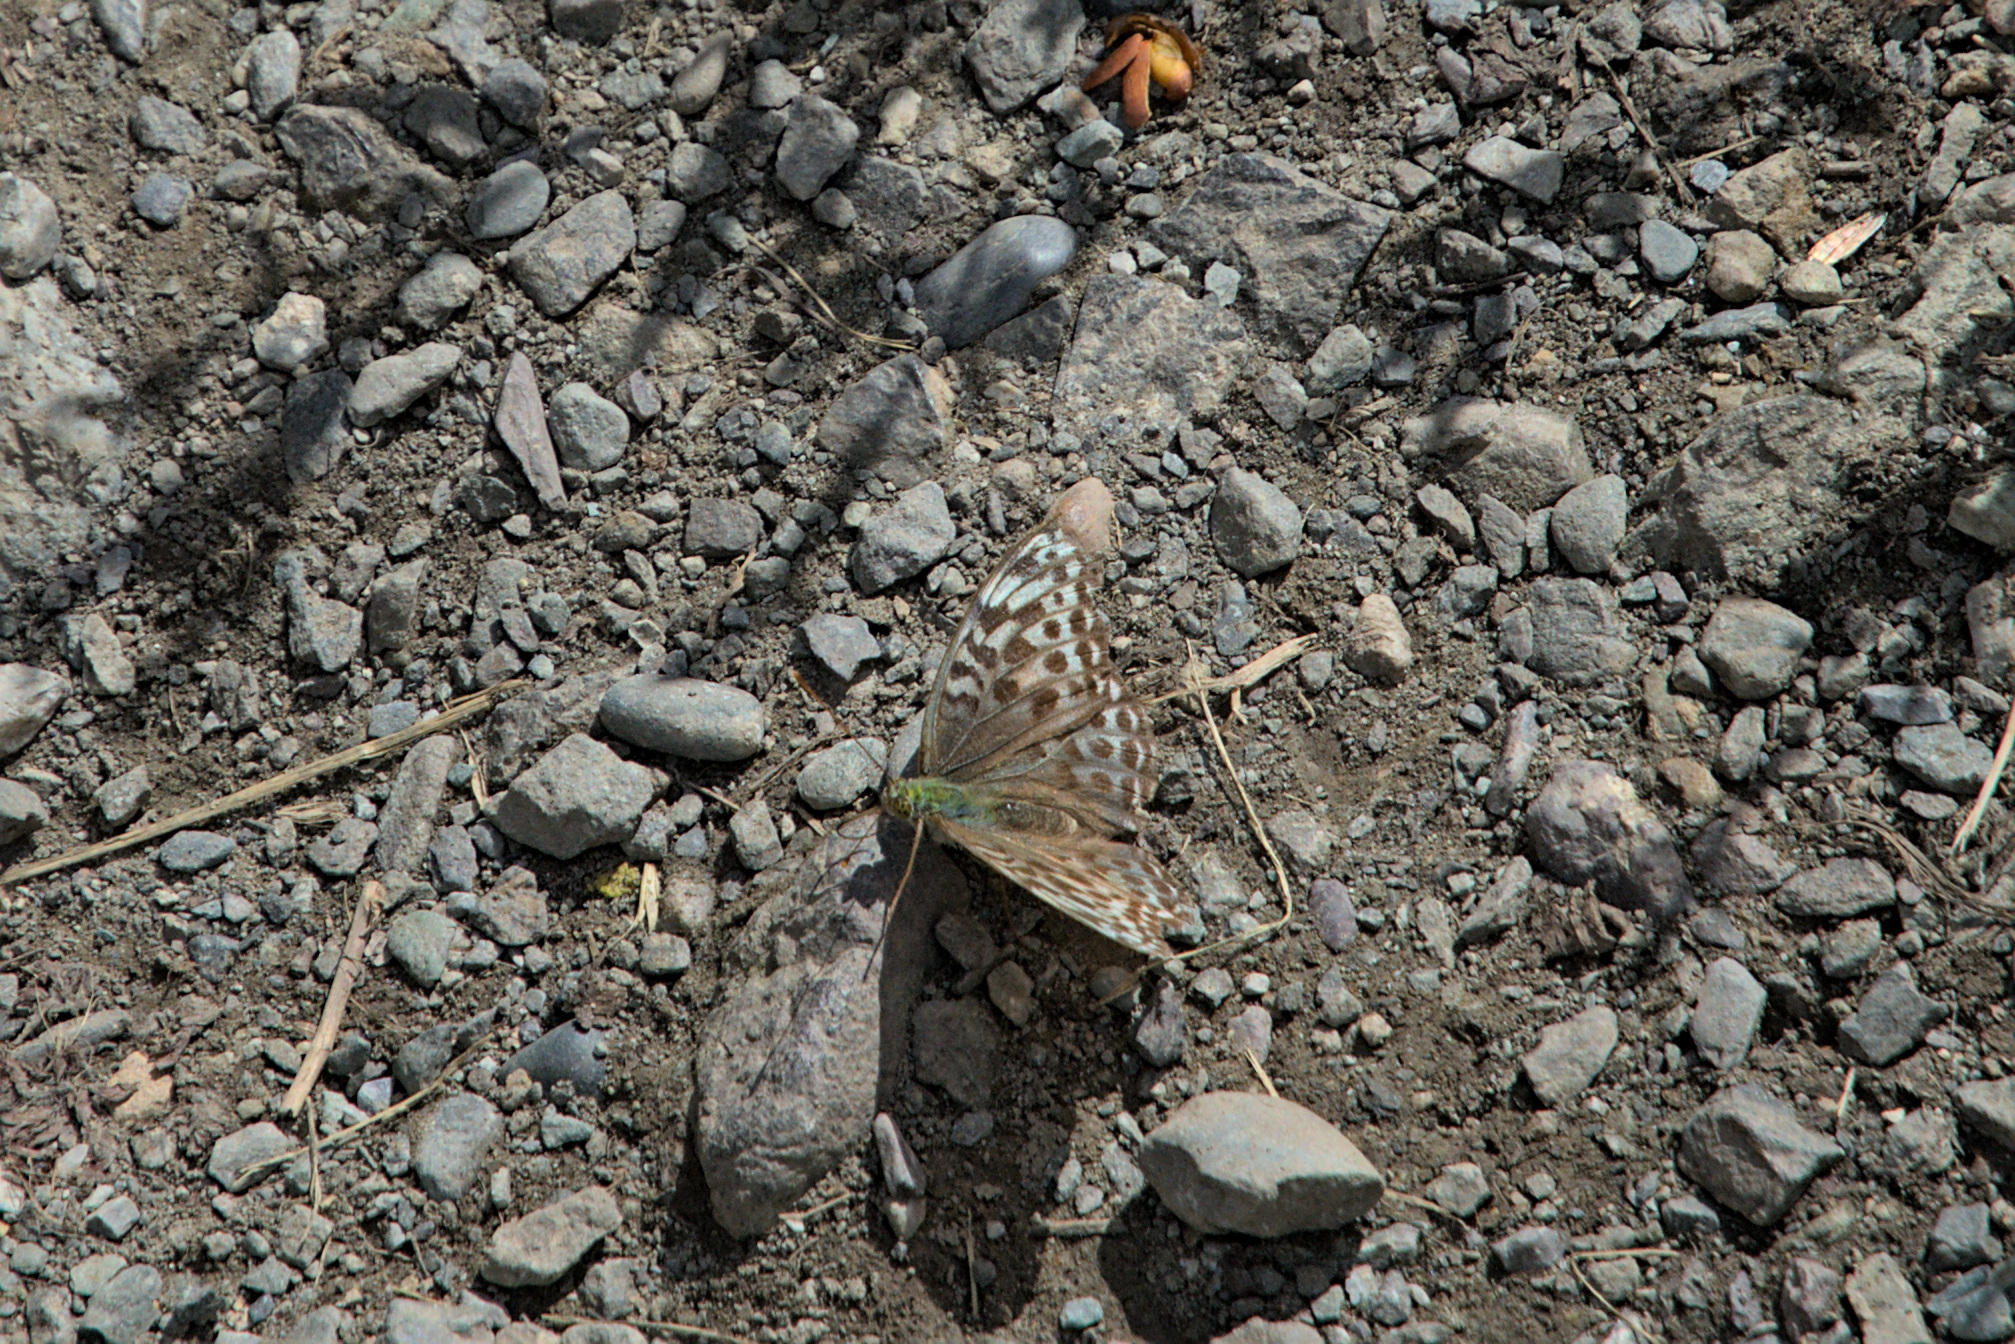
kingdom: Animalia
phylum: Arthropoda
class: Insecta
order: Lepidoptera
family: Nymphalidae
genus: Argynnis
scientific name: Argynnis paphia
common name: Silver-washed fritillary
